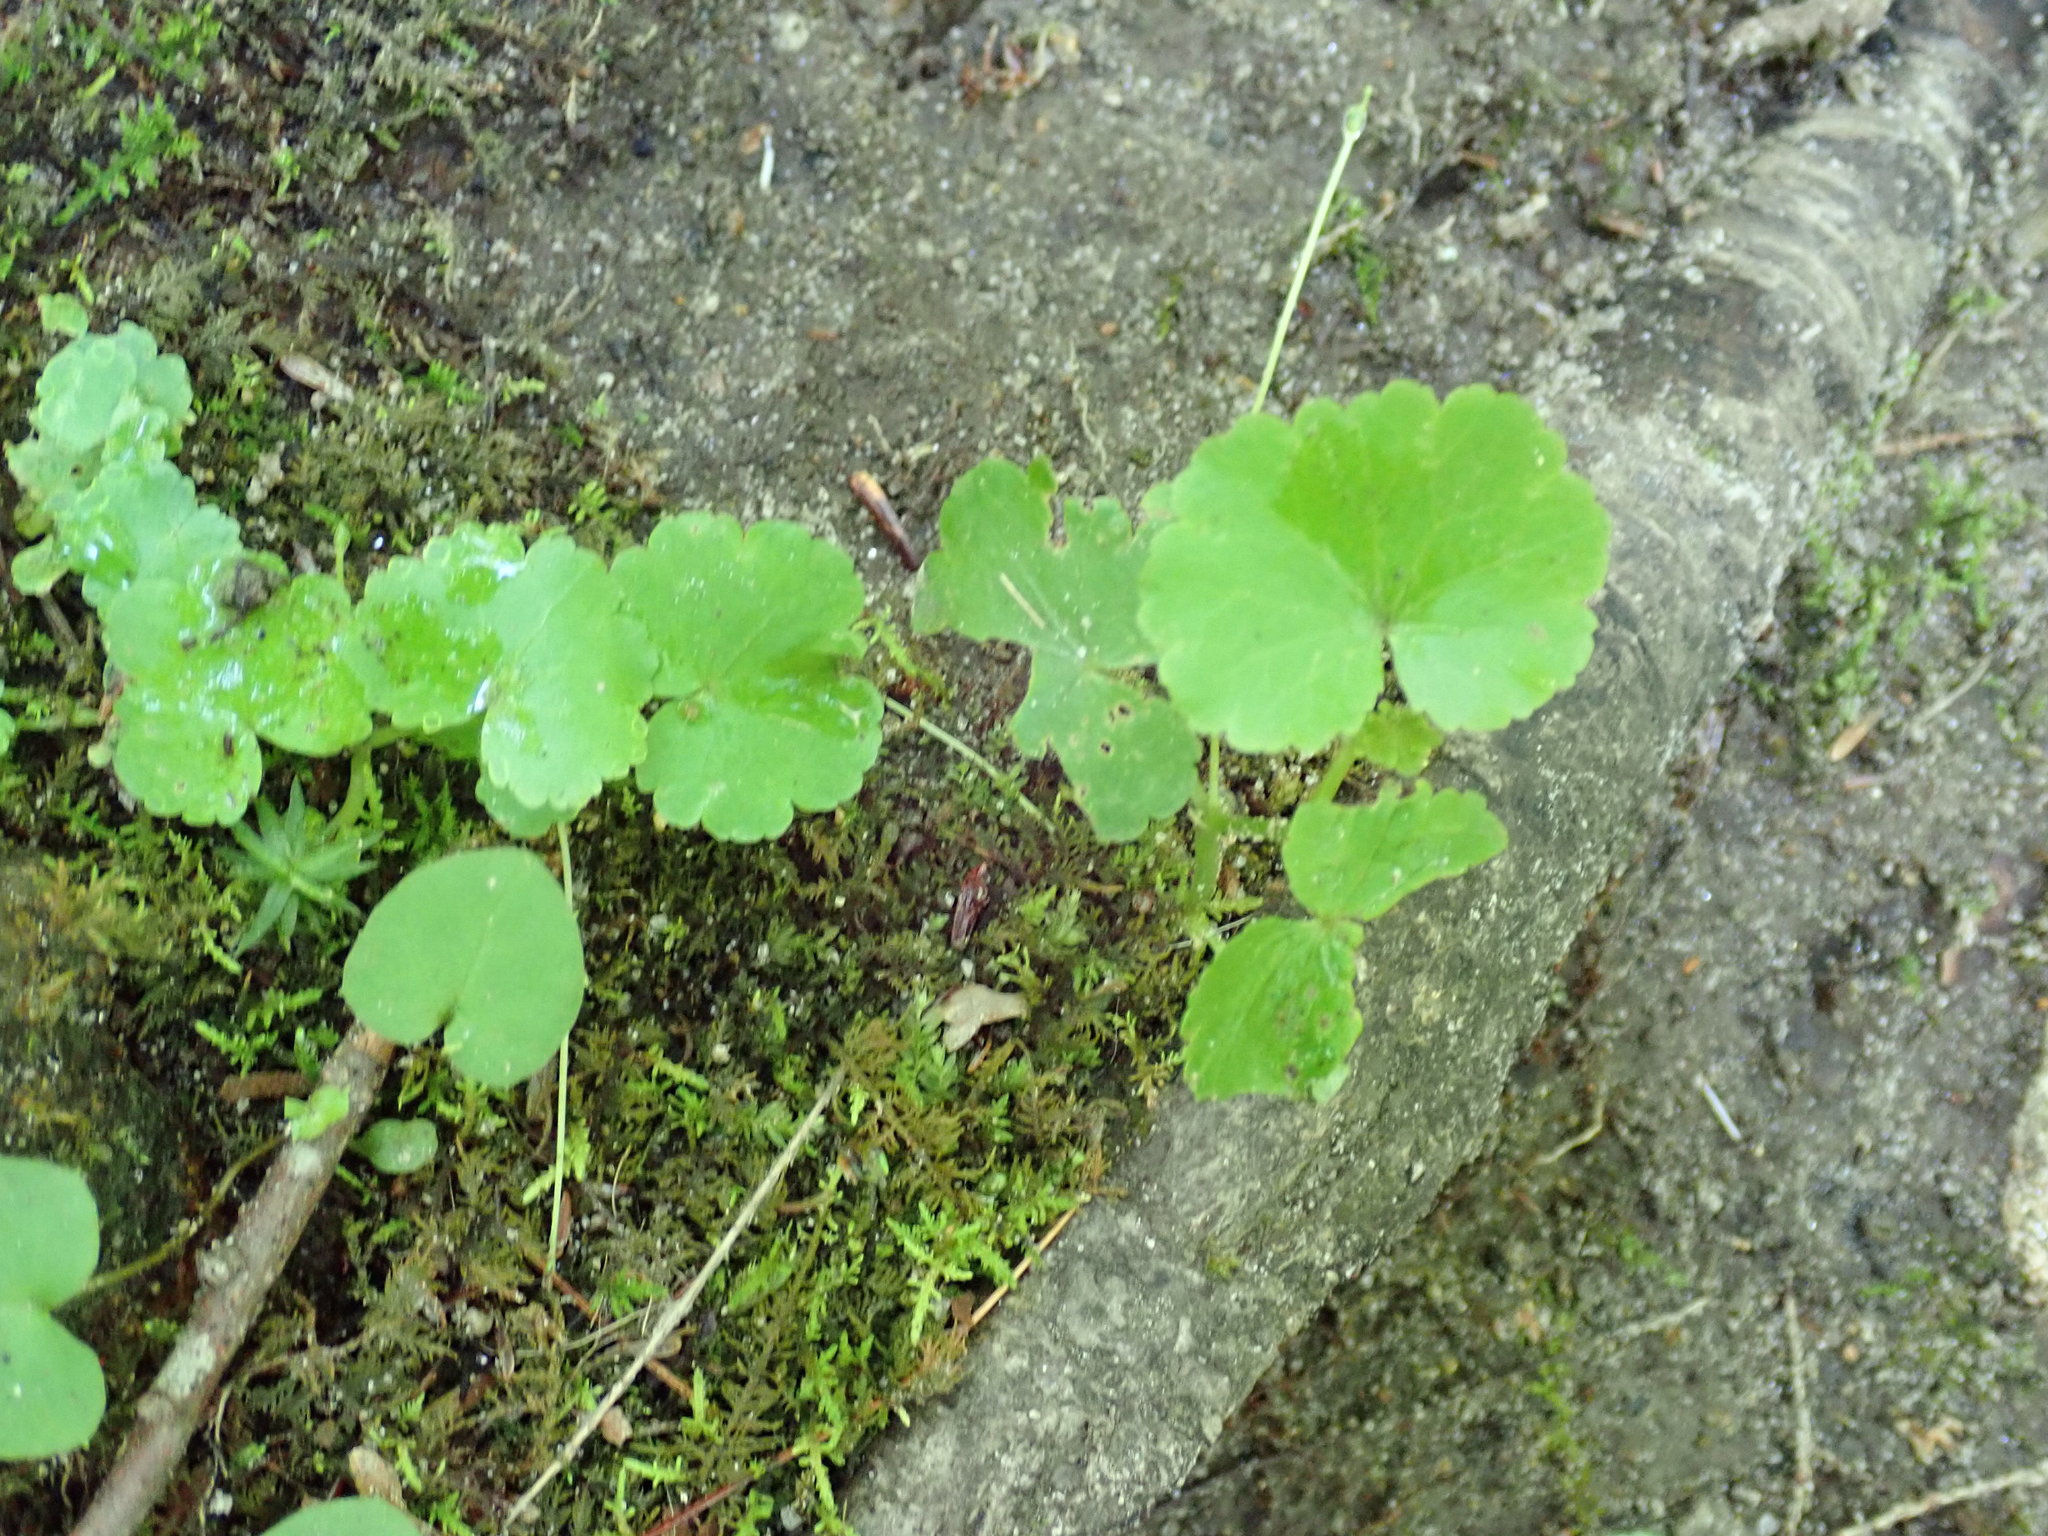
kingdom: Plantae
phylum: Tracheophyta
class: Magnoliopsida
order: Apiales
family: Araliaceae
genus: Hydrocotyle
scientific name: Hydrocotyle americana
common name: American water-pennywort
